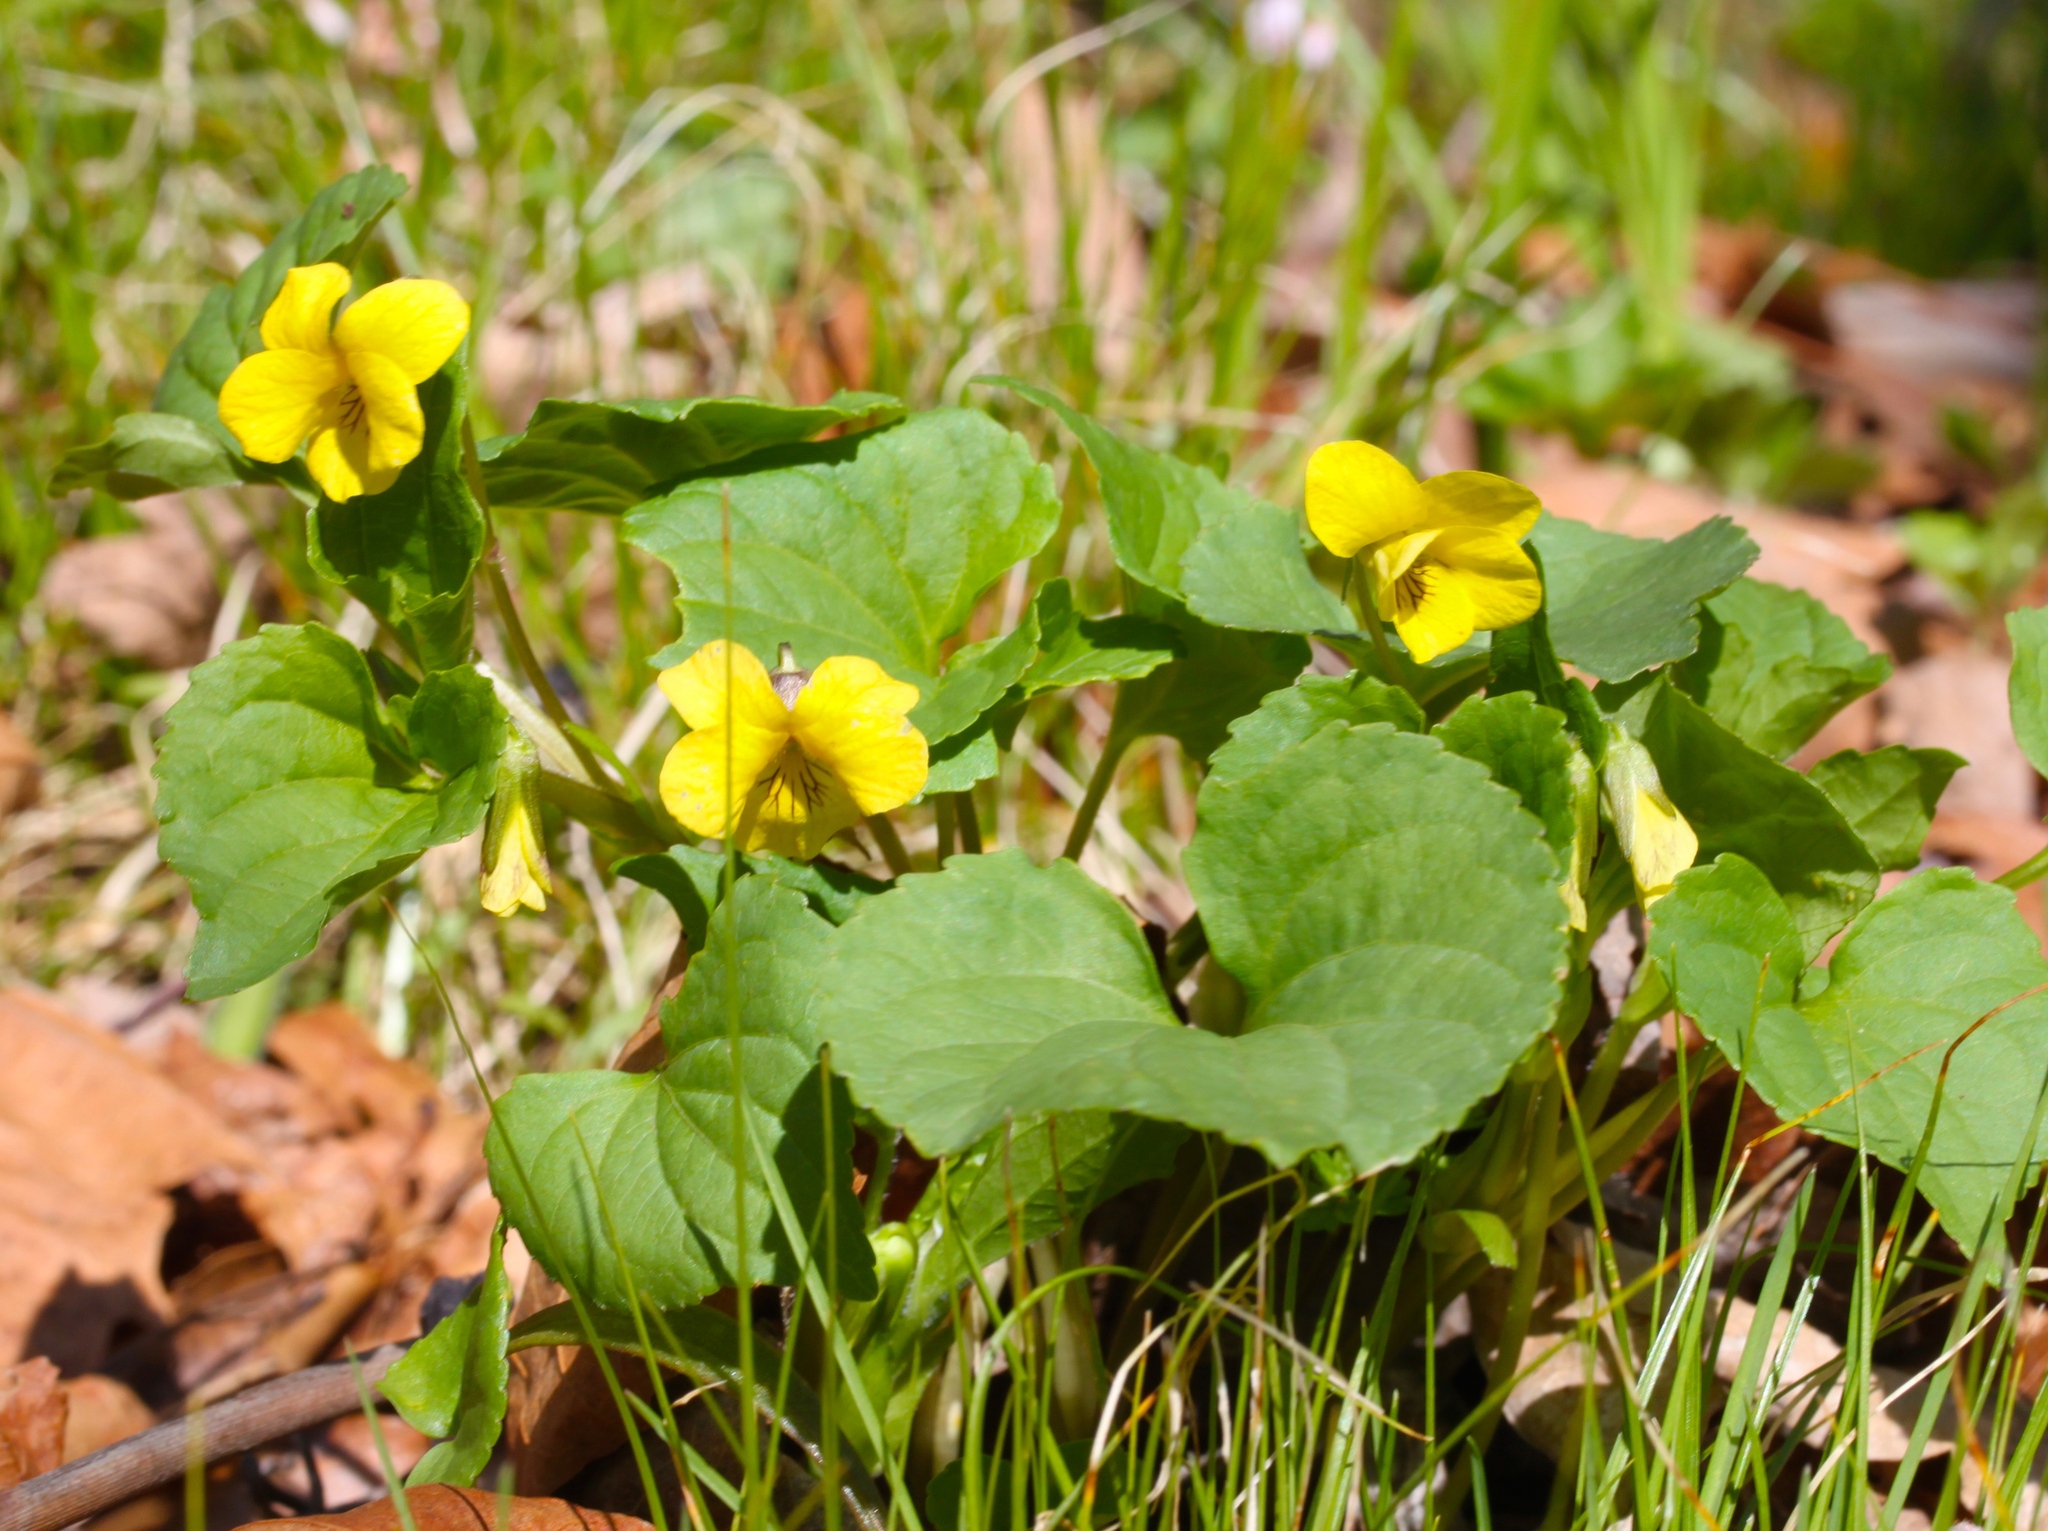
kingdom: Plantae
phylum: Tracheophyta
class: Magnoliopsida
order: Malpighiales
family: Violaceae
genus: Viola
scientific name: Viola eriocarpa
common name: Smooth yellow violet
